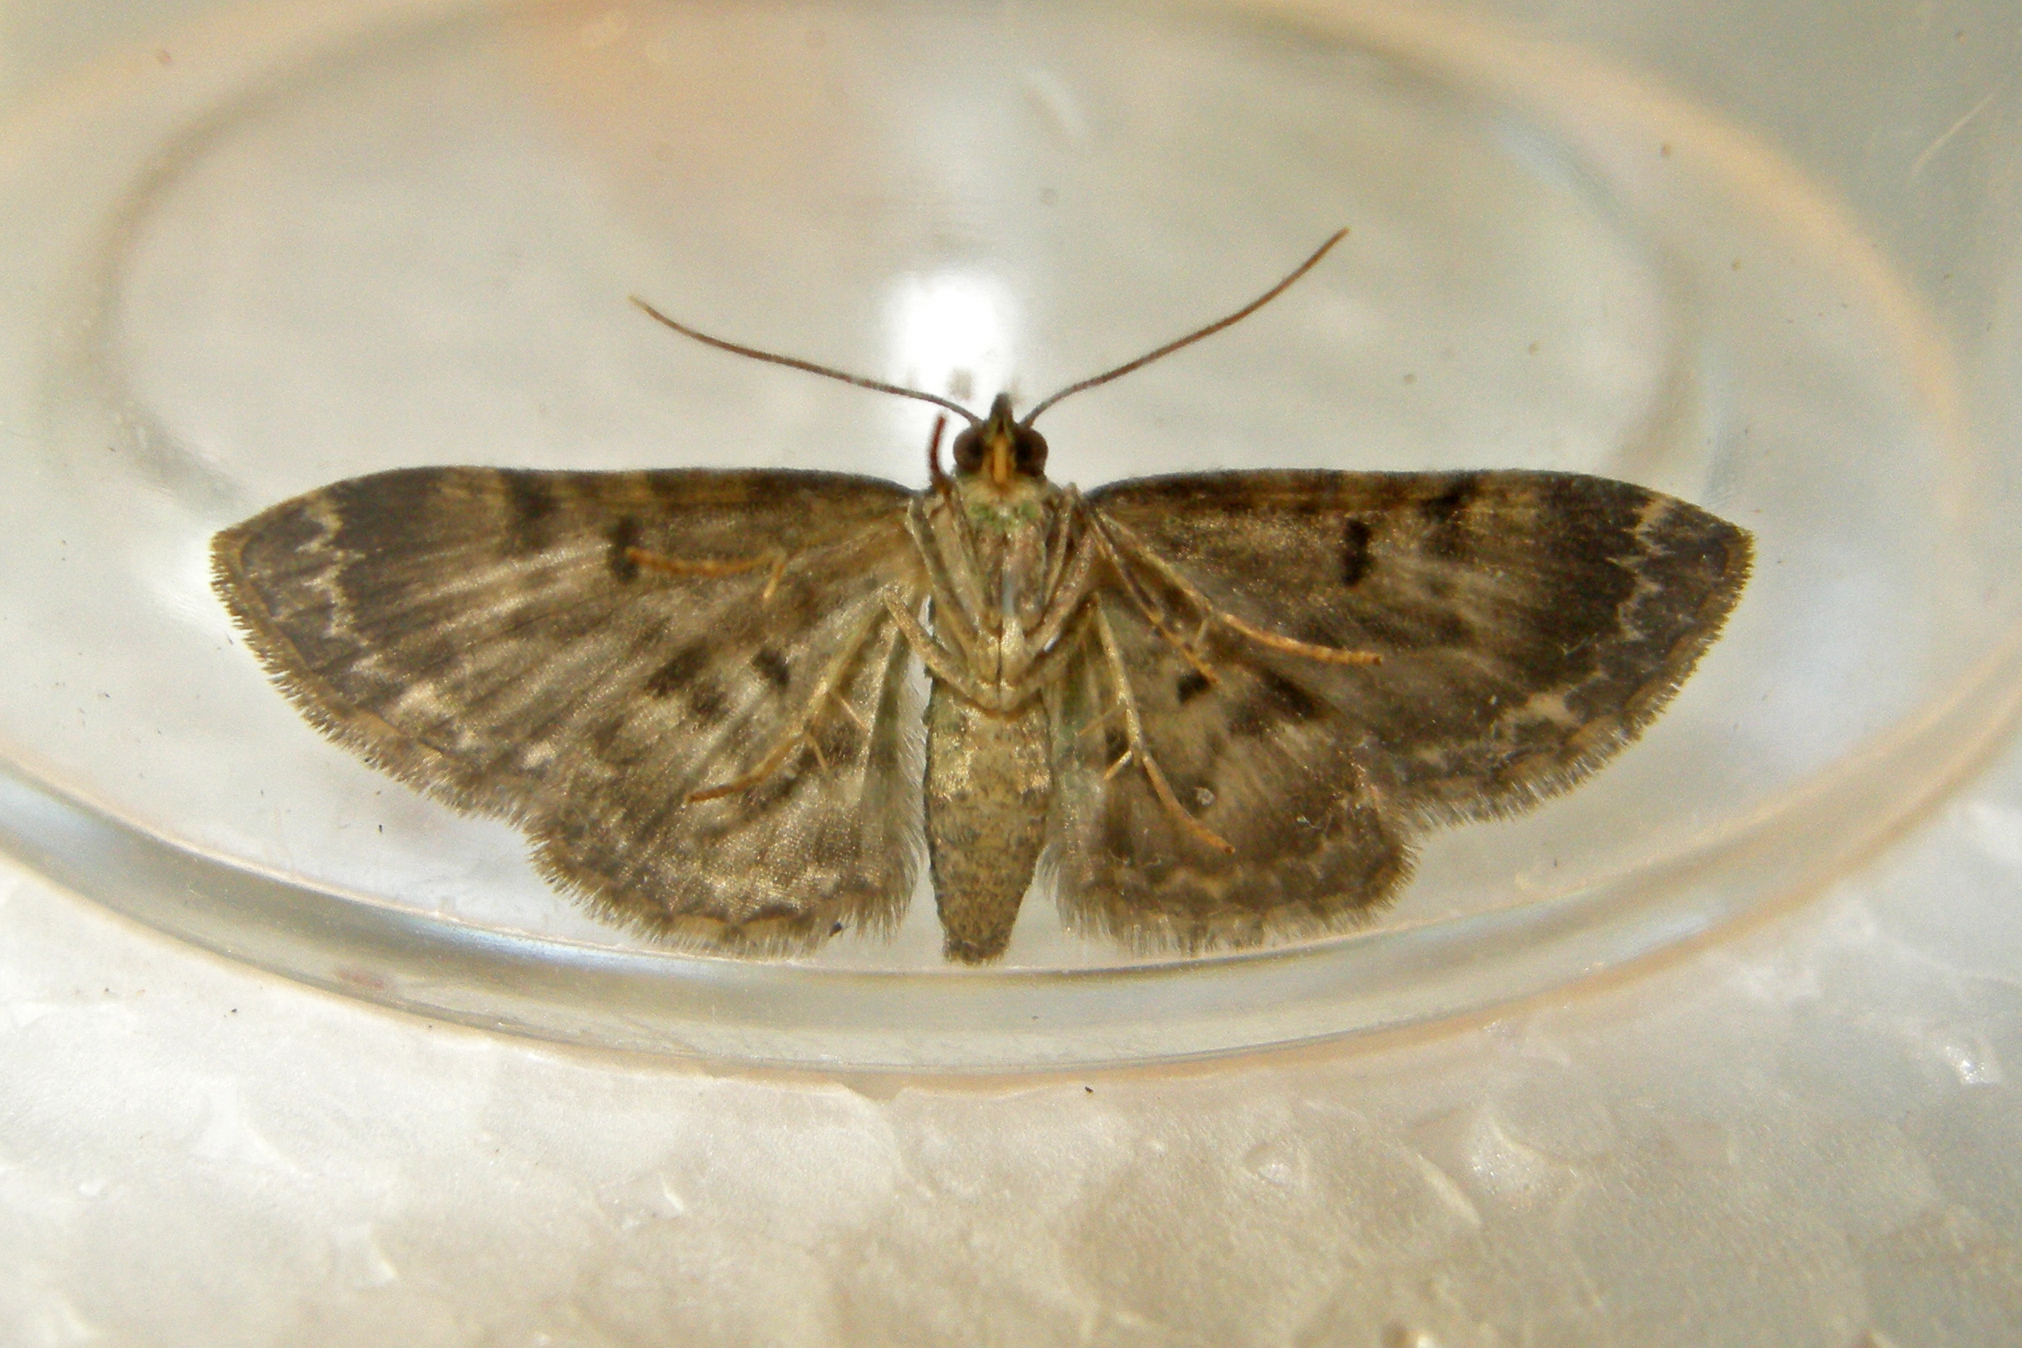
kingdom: Animalia
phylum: Arthropoda
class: Insecta
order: Lepidoptera
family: Geometridae
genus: Pasiphila
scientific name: Pasiphila rectangulata
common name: Green pug
